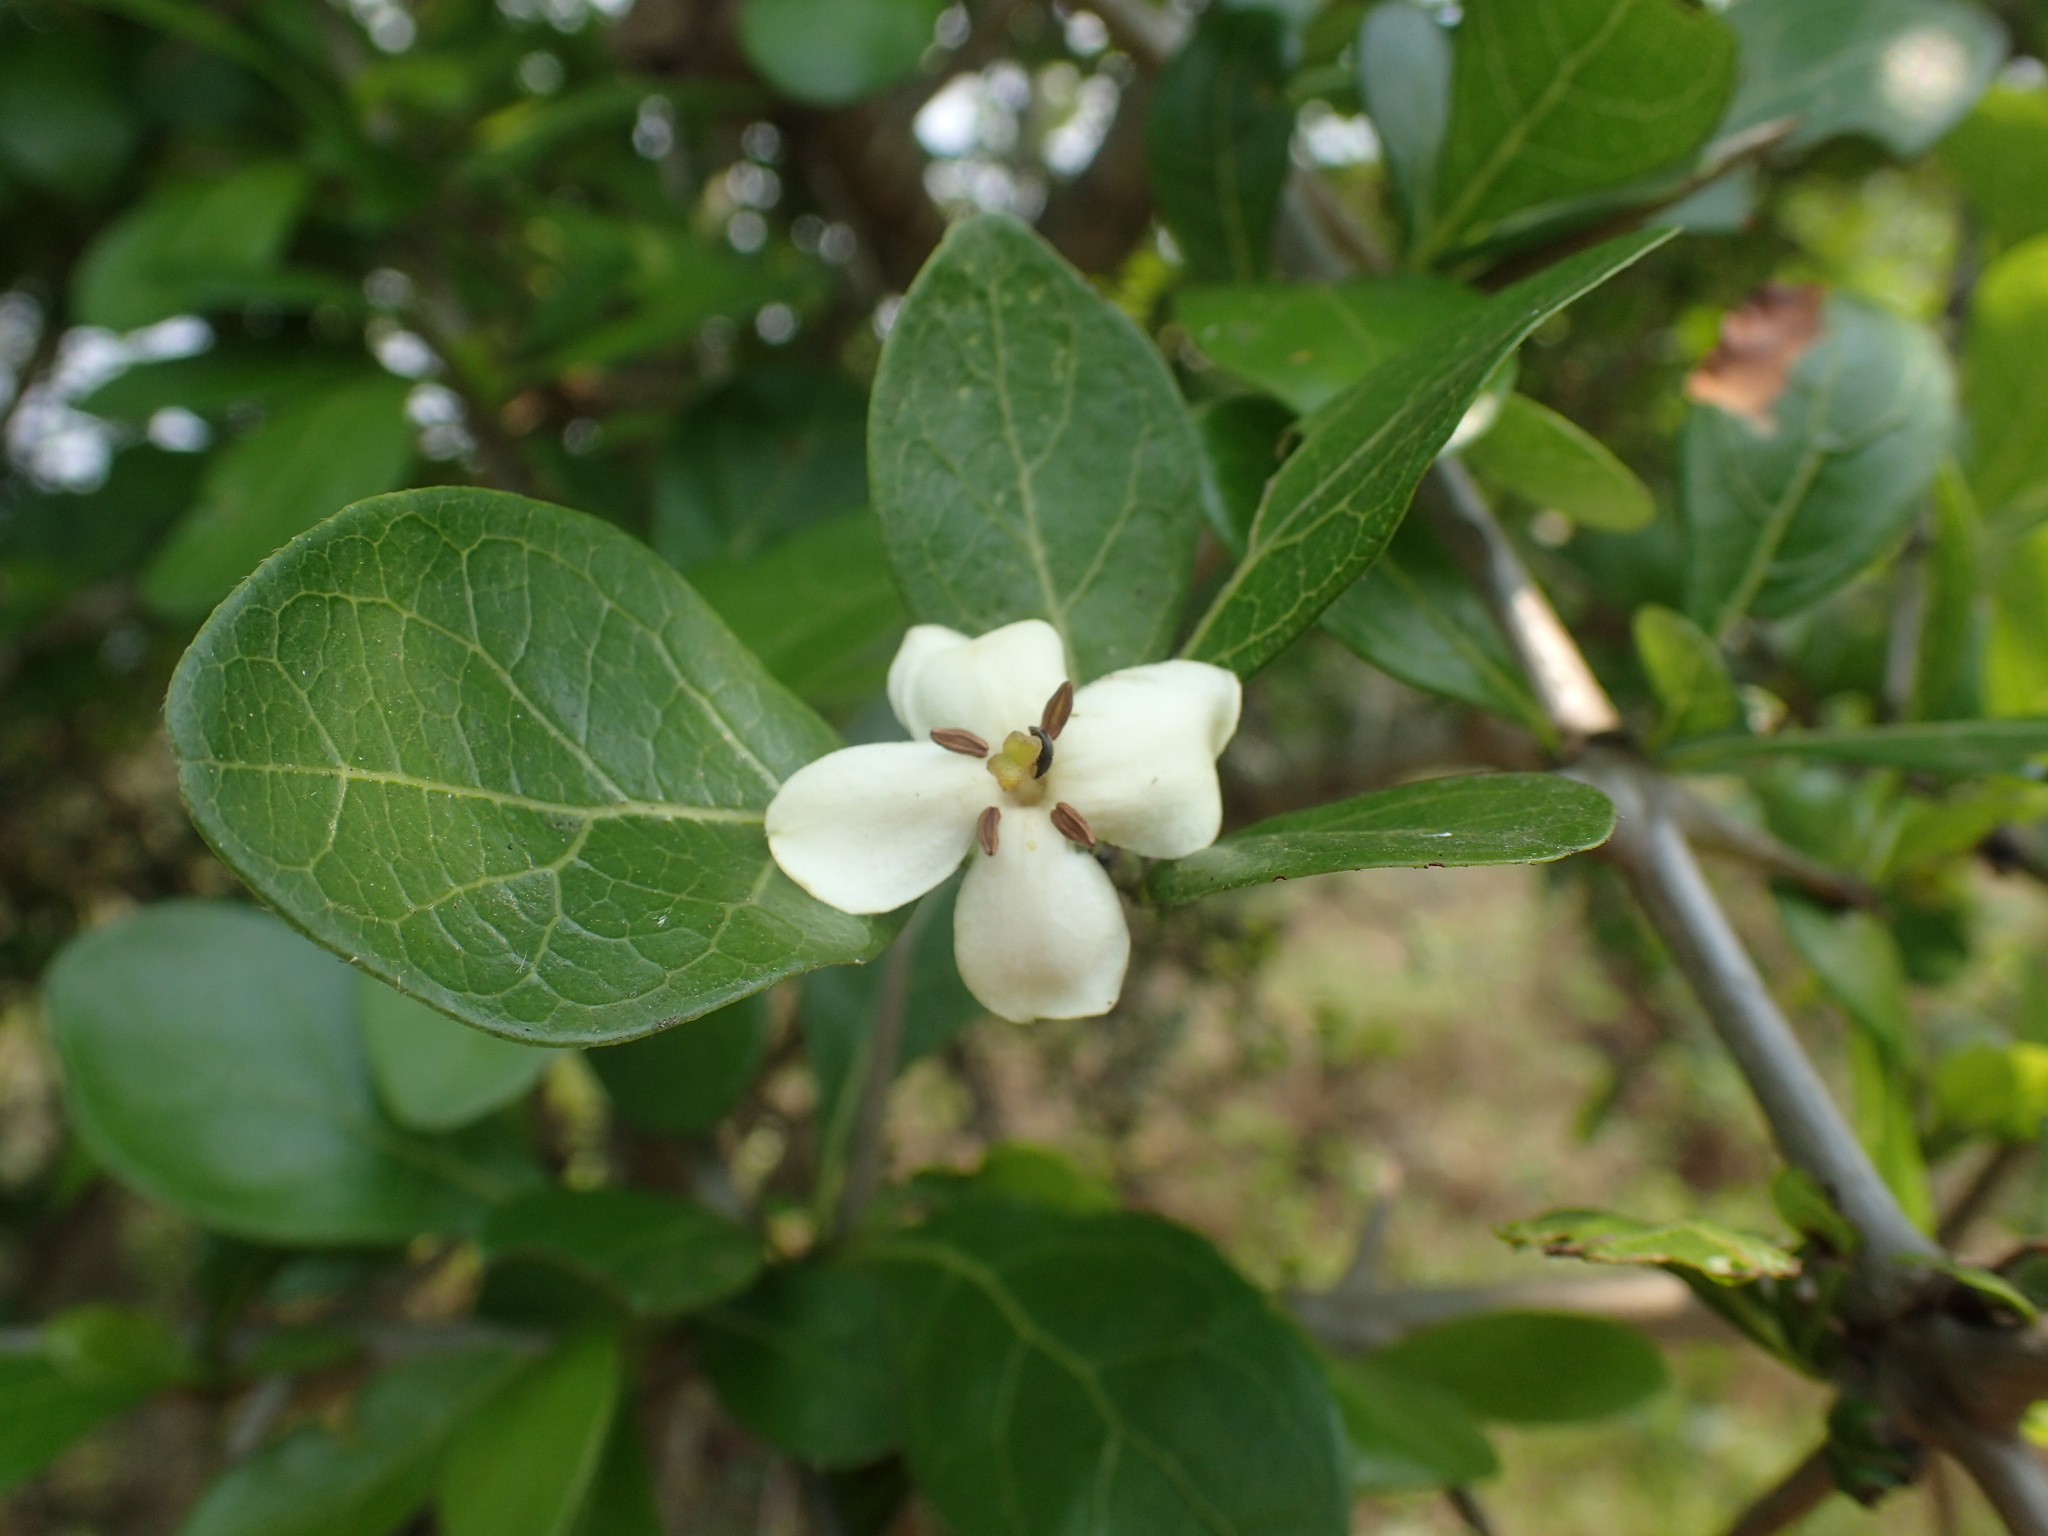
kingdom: Plantae
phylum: Tracheophyta
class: Magnoliopsida
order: Gentianales
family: Rubiaceae
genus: Catunaregam
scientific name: Catunaregam obovata
